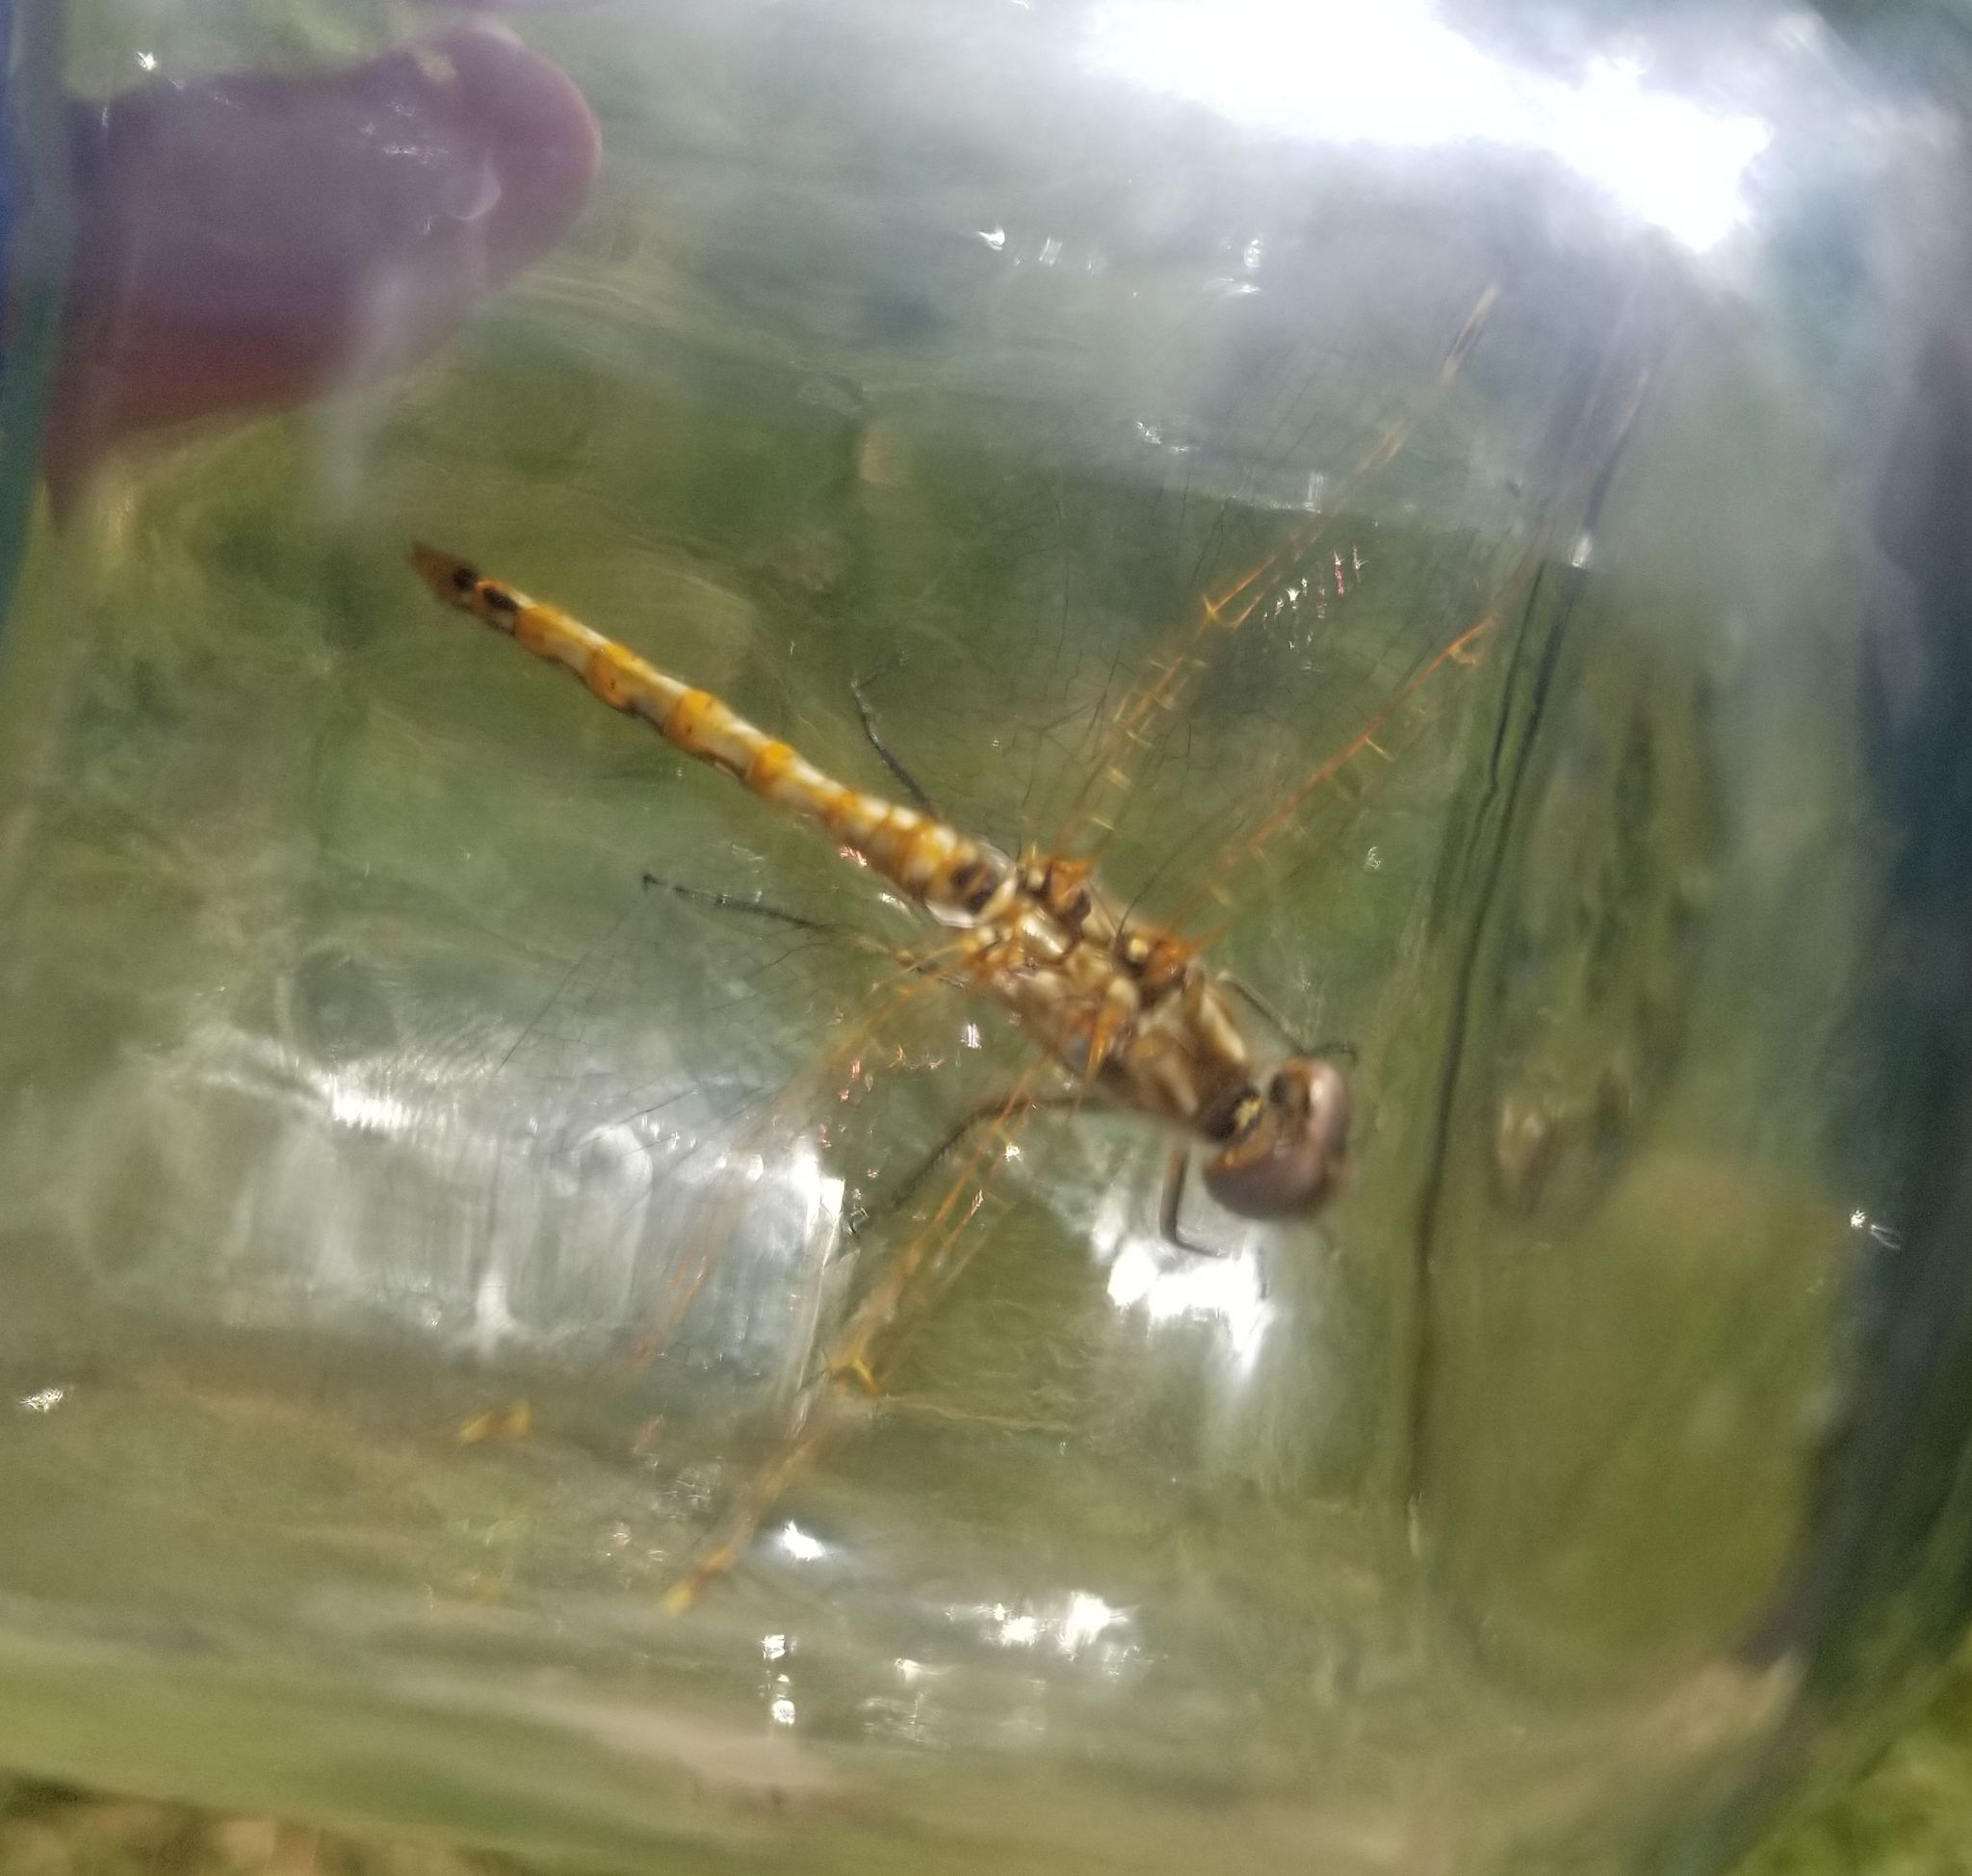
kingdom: Animalia
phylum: Arthropoda
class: Insecta
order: Odonata
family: Libellulidae
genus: Sympetrum
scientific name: Sympetrum corruptum
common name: Variegated meadowhawk
